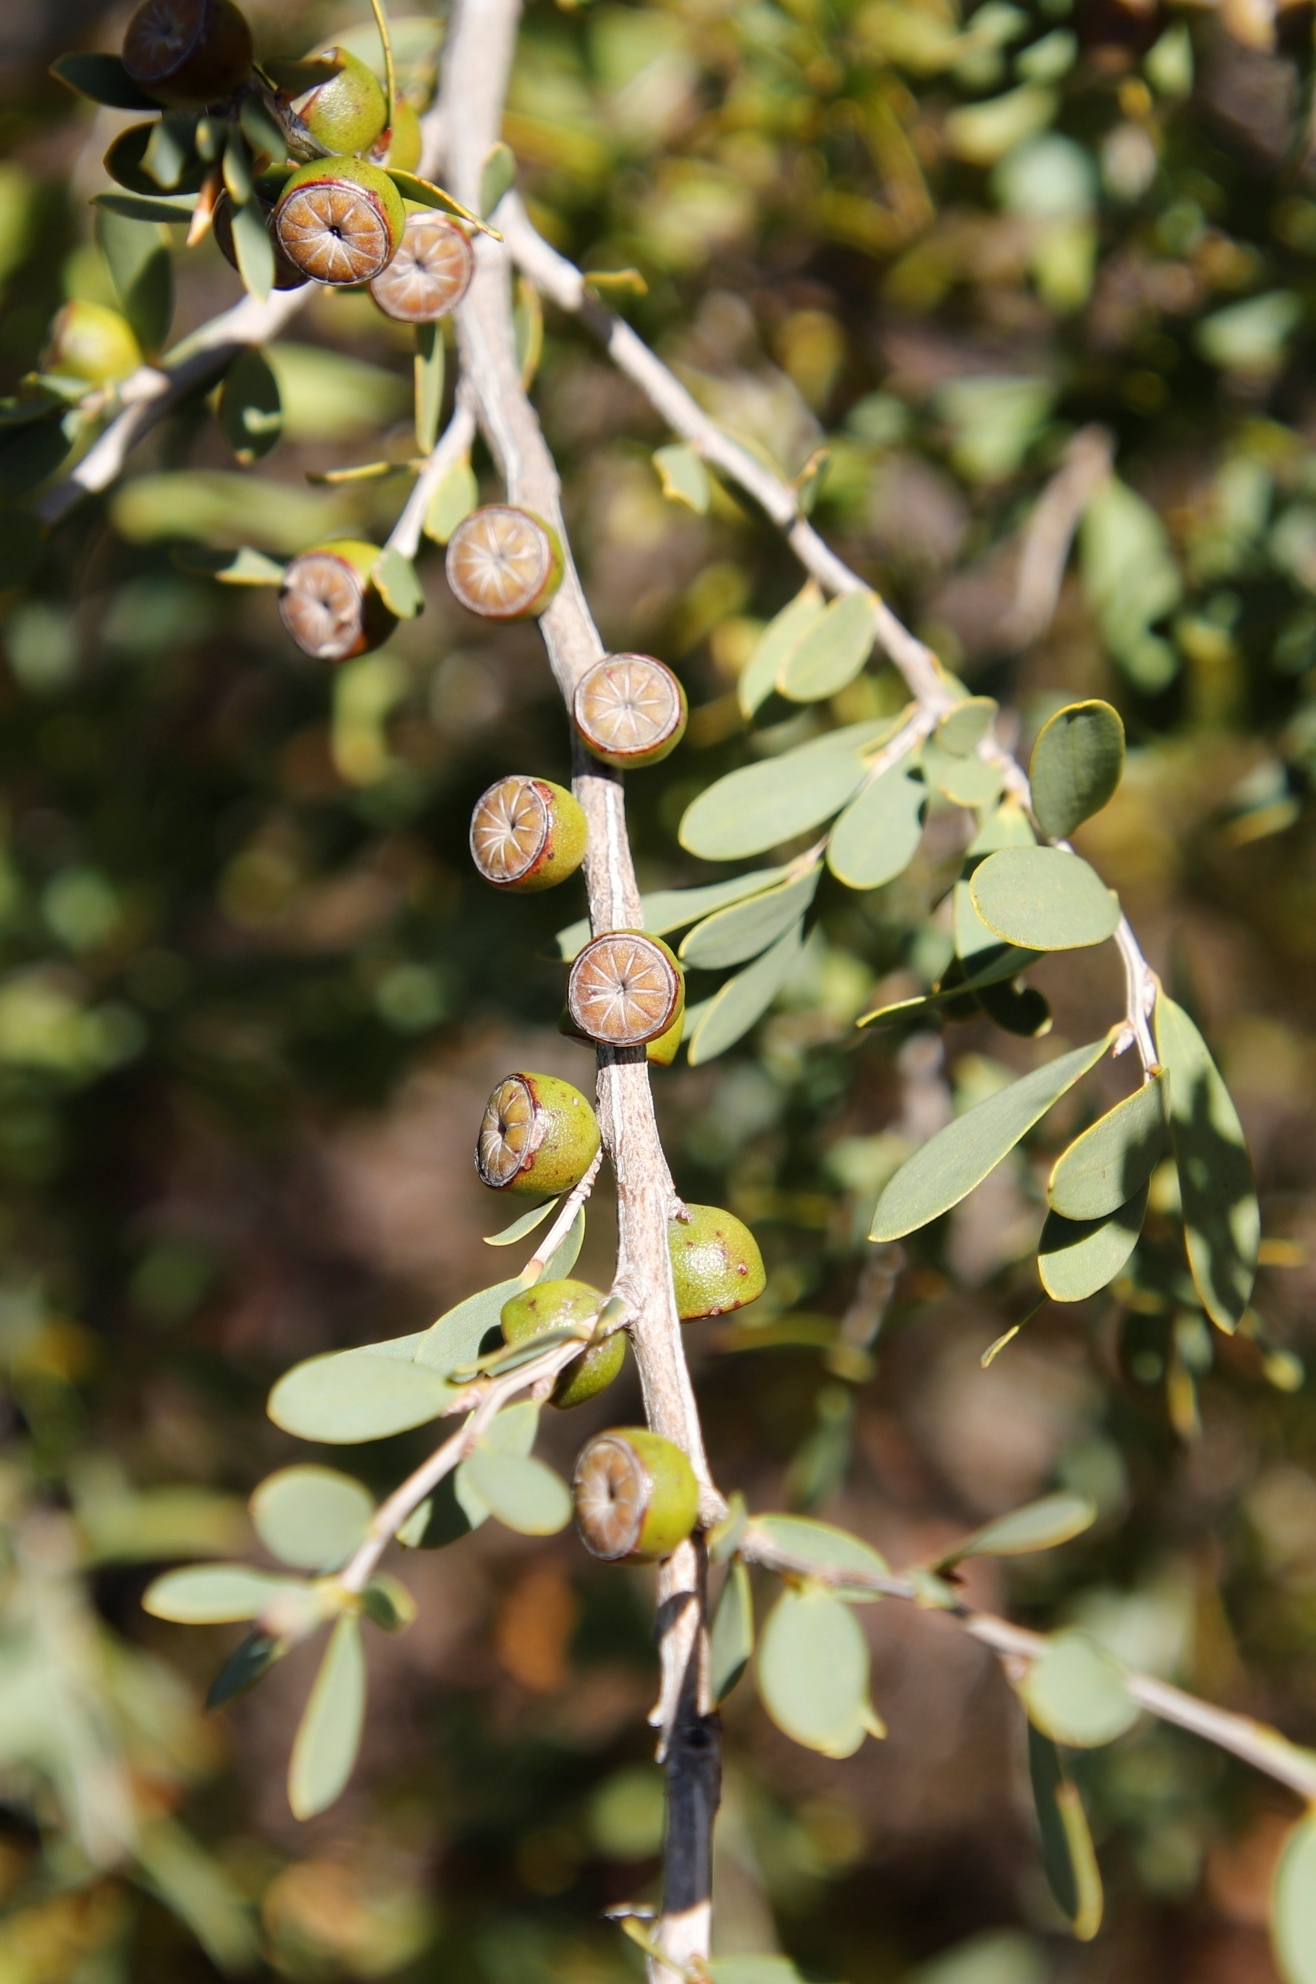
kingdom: Plantae
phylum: Tracheophyta
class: Magnoliopsida
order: Myrtales
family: Myrtaceae
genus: Leptospermum
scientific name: Leptospermum laevigatum
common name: Australian teatree
